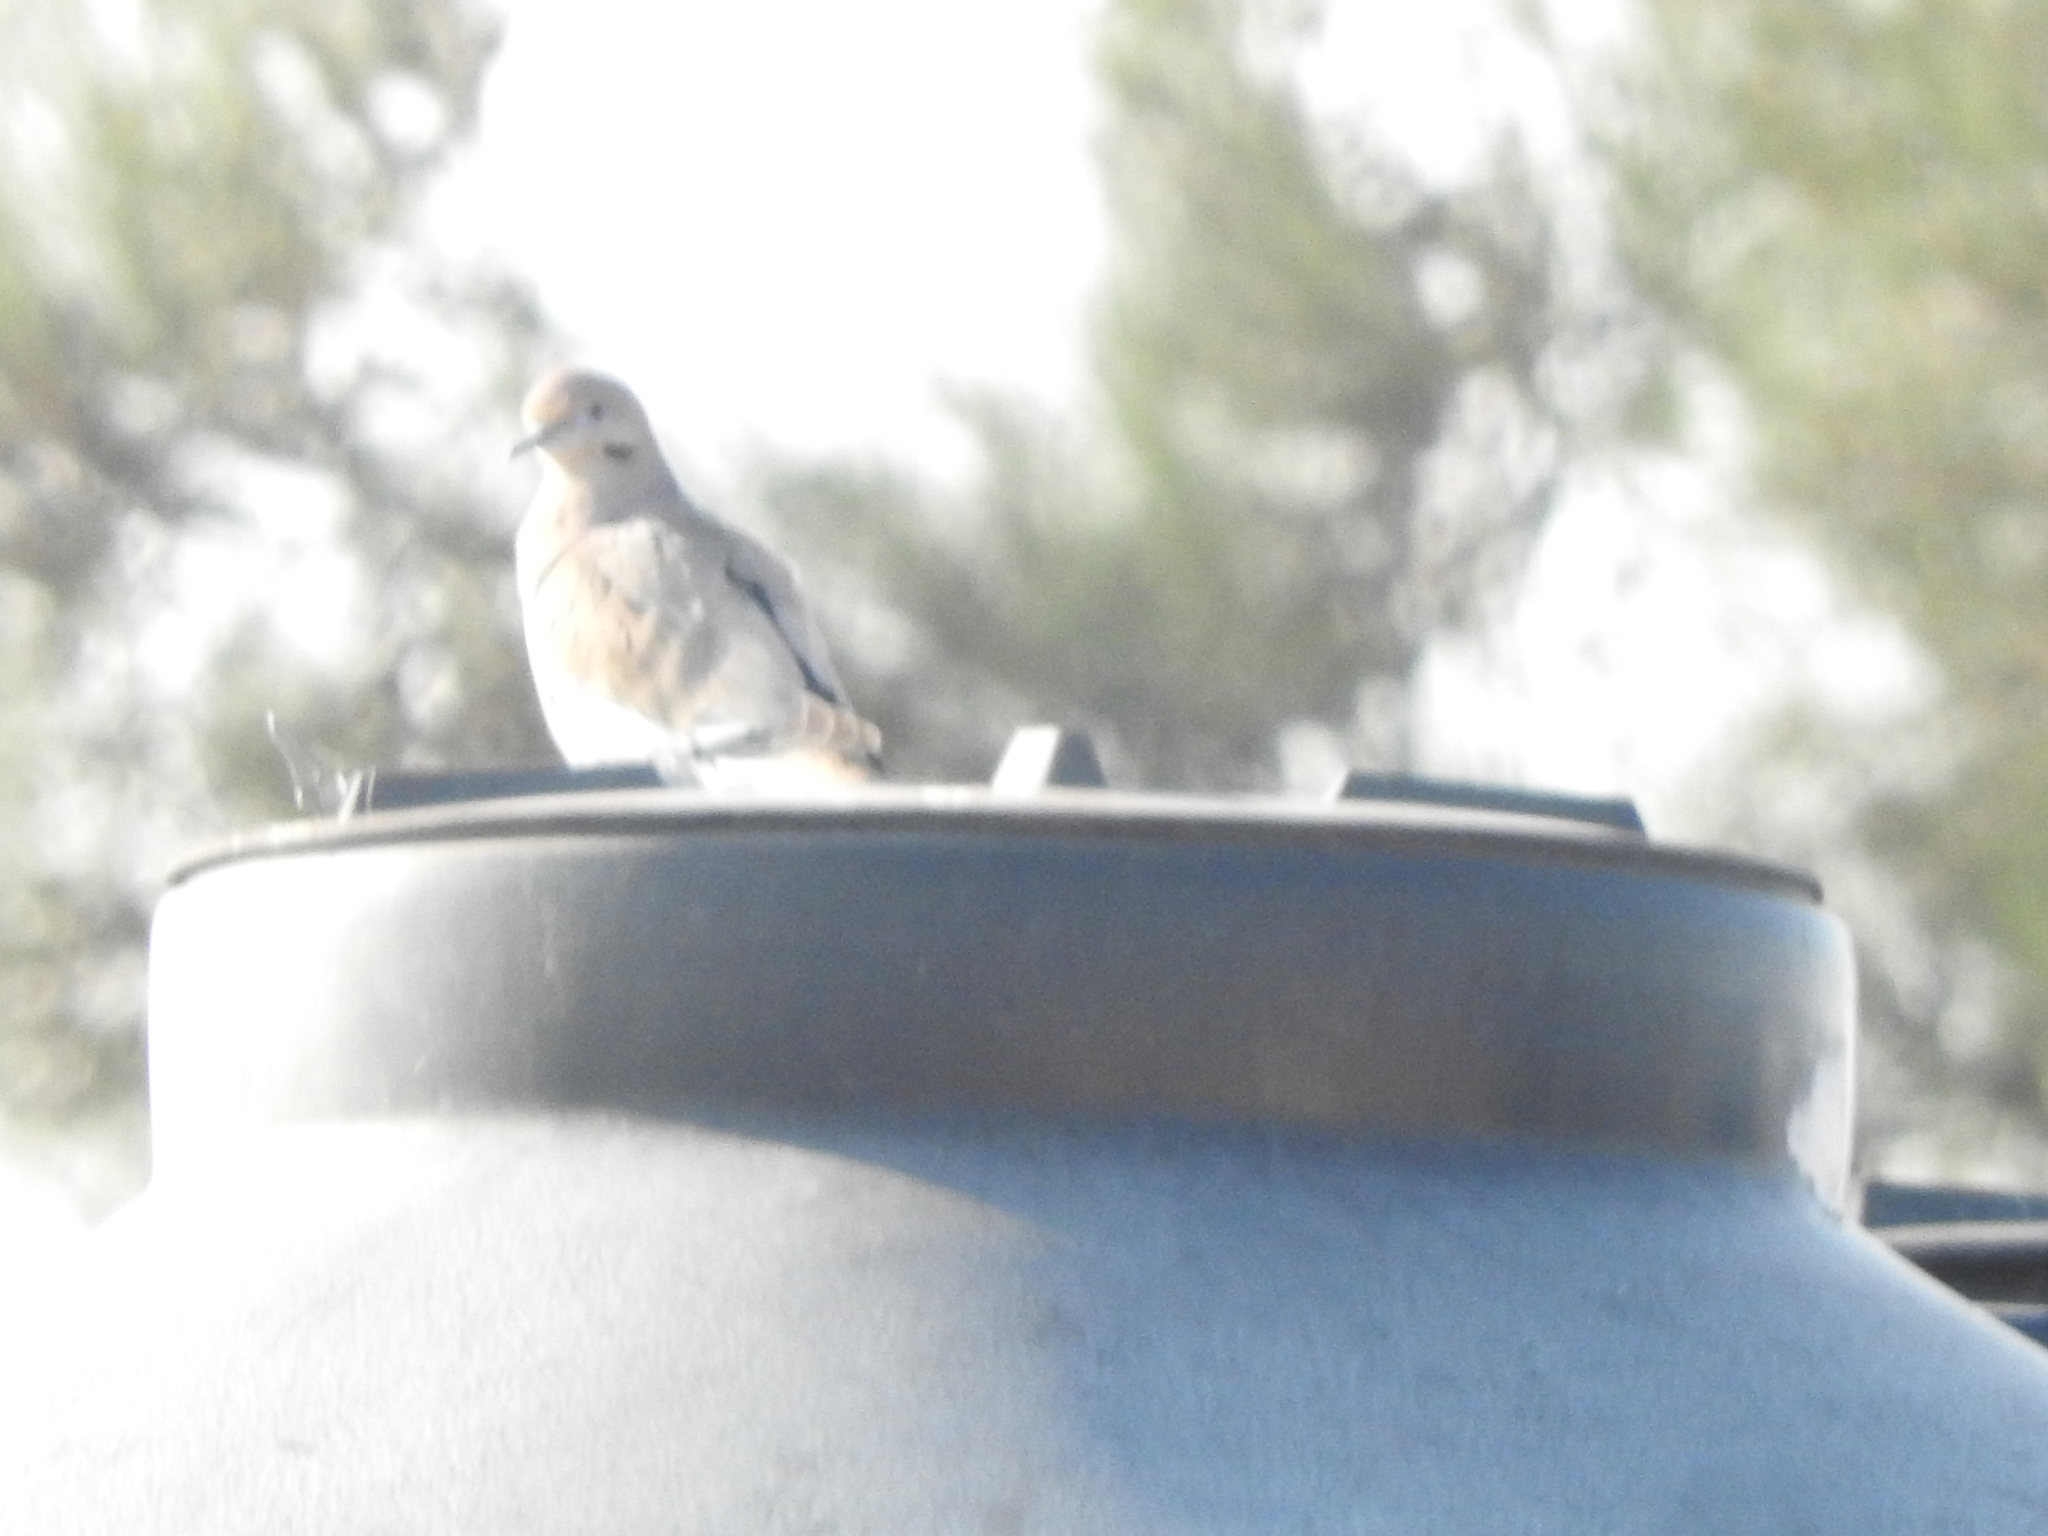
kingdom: Animalia
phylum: Chordata
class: Aves
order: Columbiformes
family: Columbidae
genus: Streptopelia
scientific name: Streptopelia decaocto
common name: Eurasian collared dove
